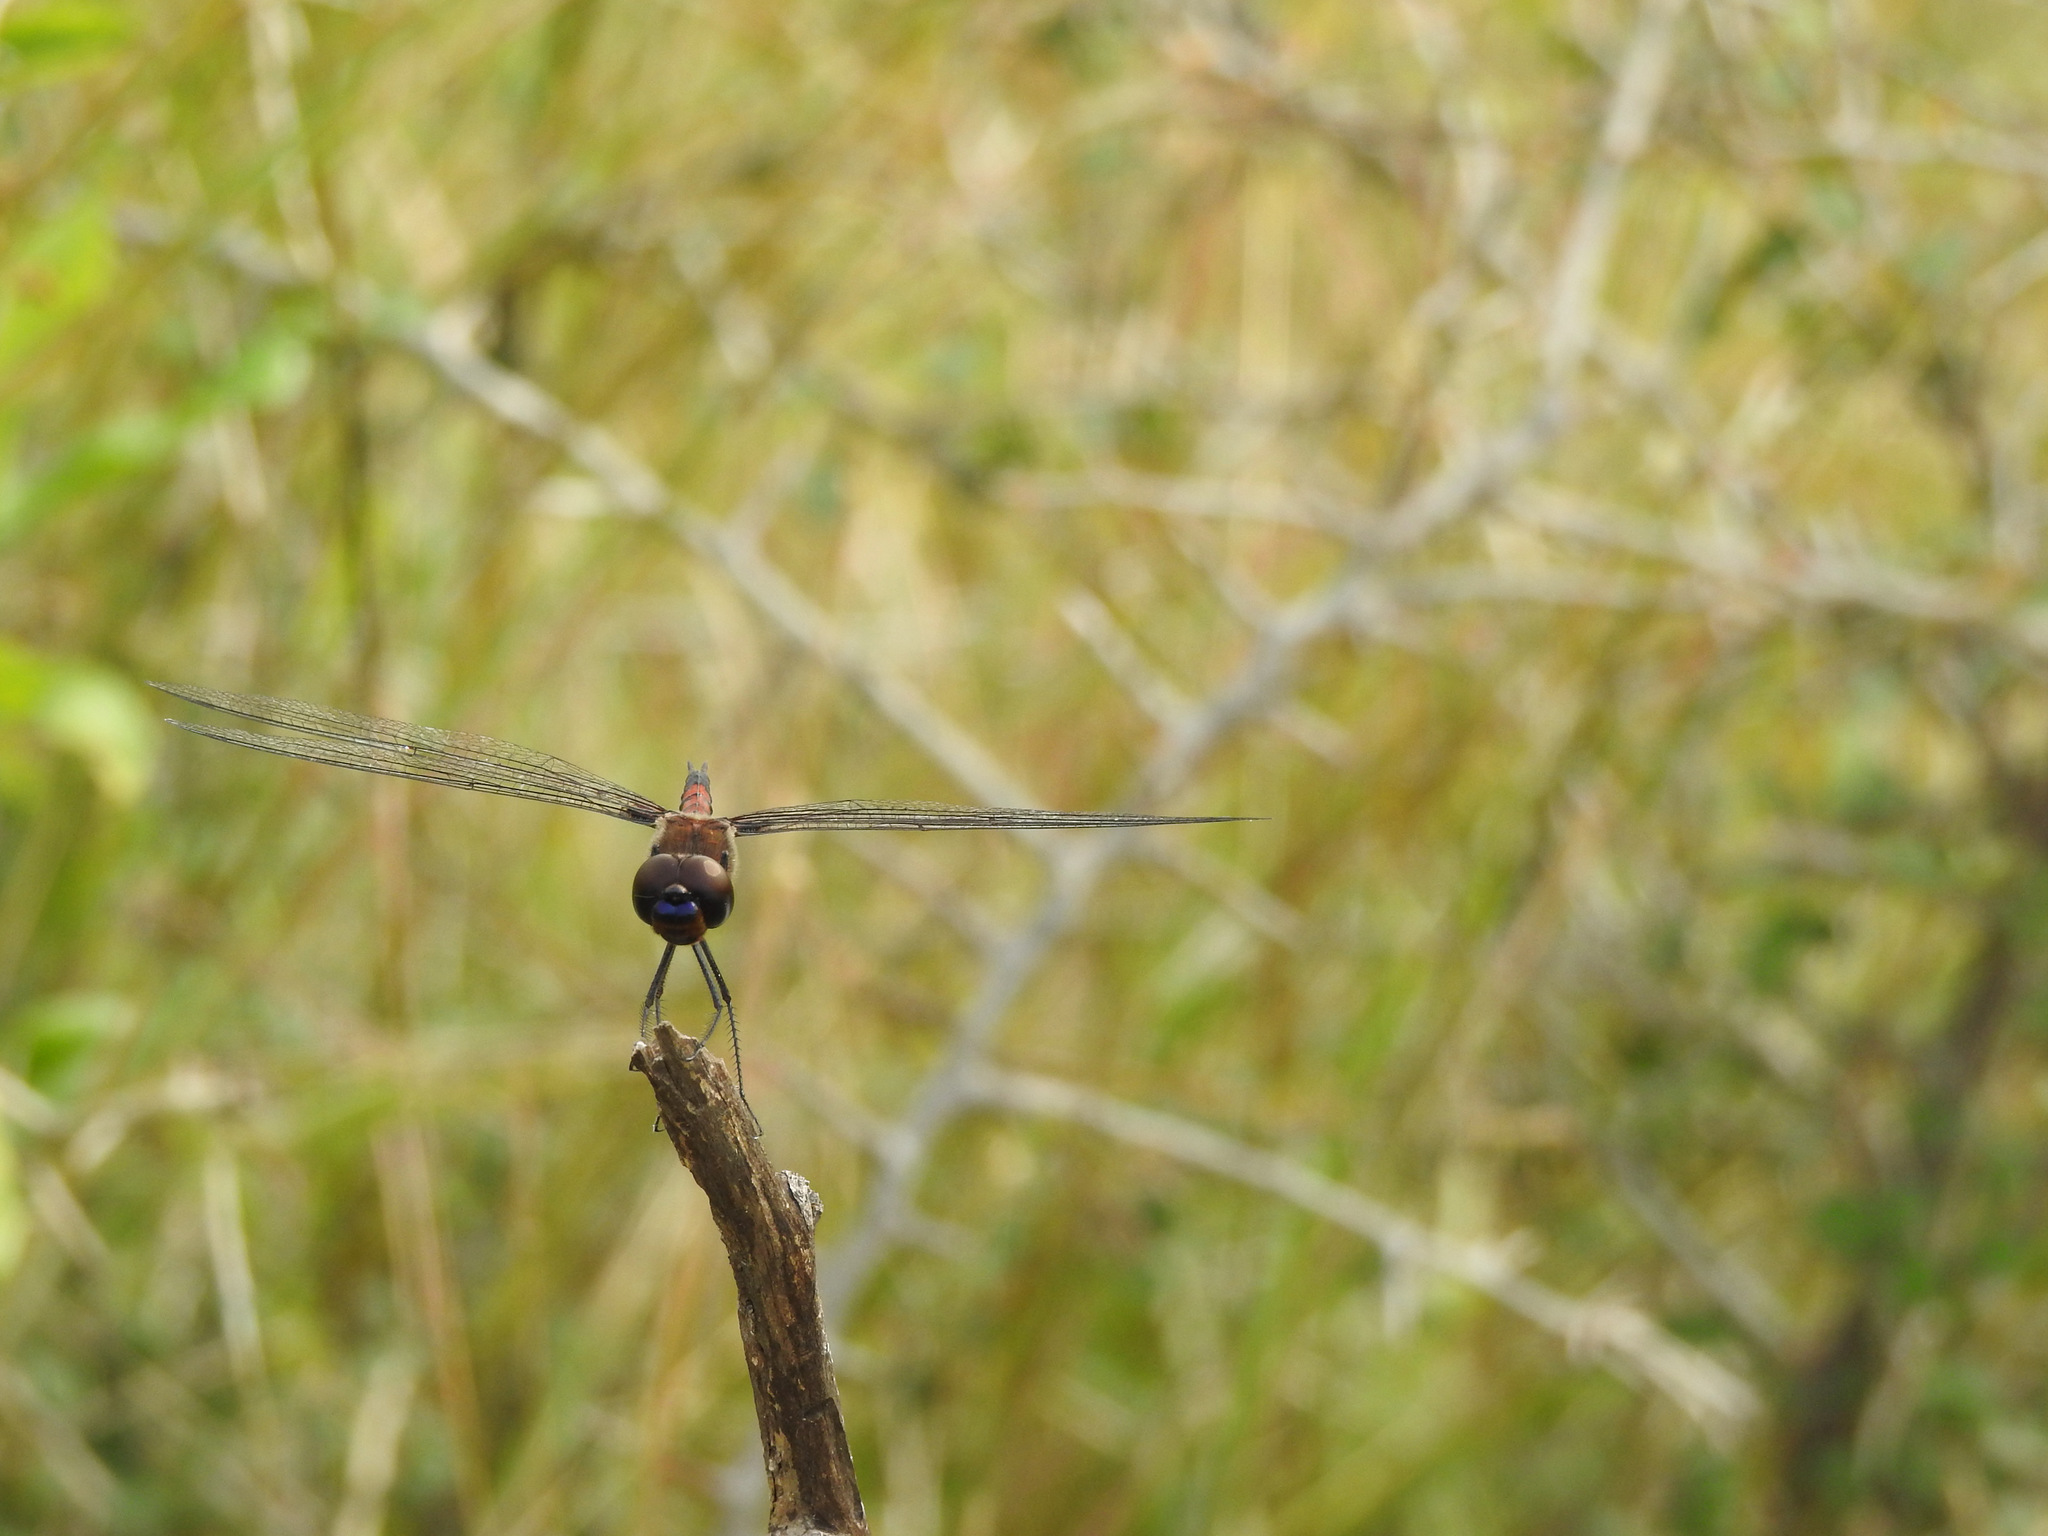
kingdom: Animalia
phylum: Arthropoda
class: Insecta
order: Odonata
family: Libellulidae
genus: Tramea
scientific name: Tramea limbata
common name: Ferruginous glider
